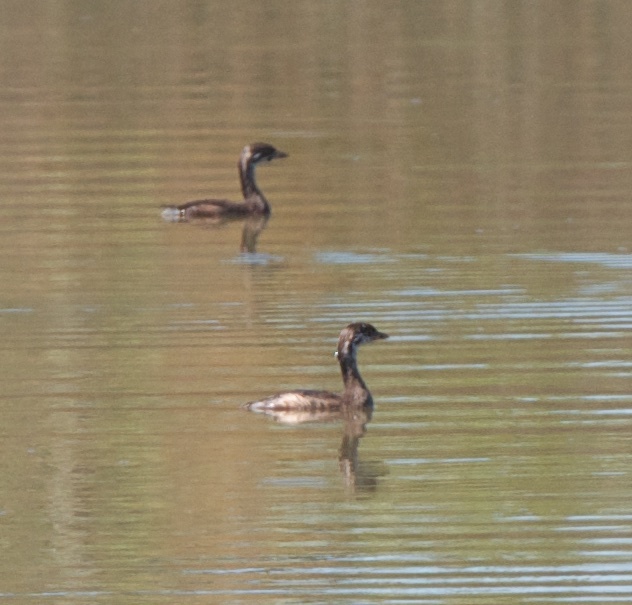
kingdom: Animalia
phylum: Chordata
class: Aves
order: Podicipediformes
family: Podicipedidae
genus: Podilymbus
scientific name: Podilymbus podiceps
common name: Pied-billed grebe
